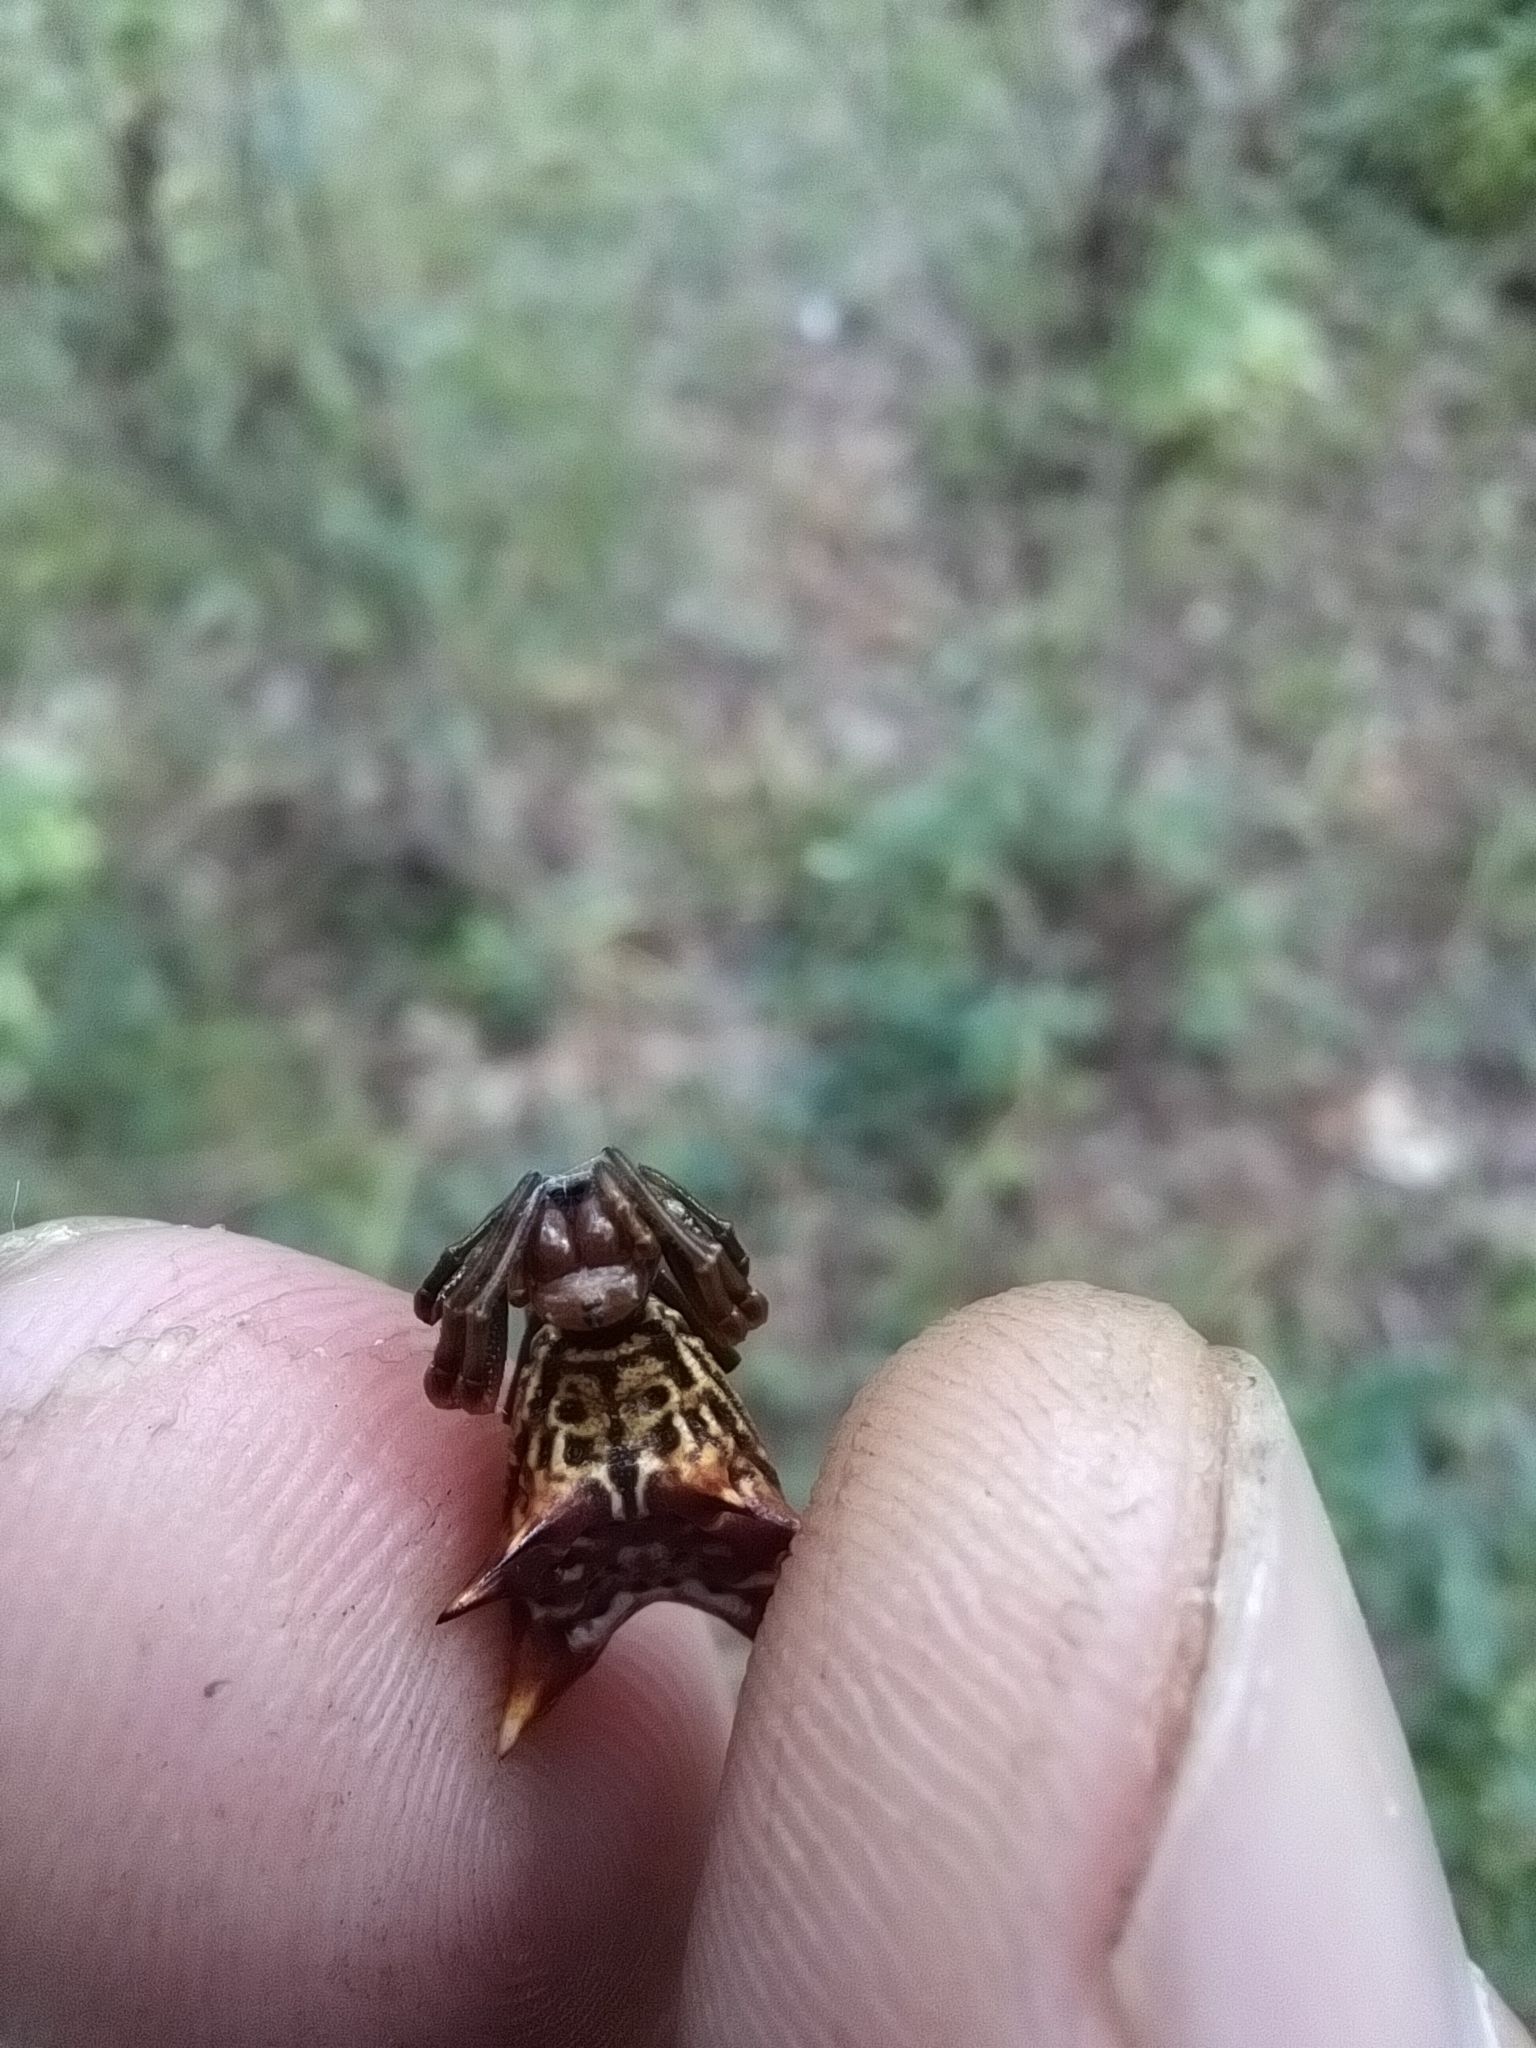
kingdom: Animalia
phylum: Arthropoda
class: Arachnida
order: Araneae
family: Araneidae
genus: Micrathena
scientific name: Micrathena gracilis
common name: Orb weavers
